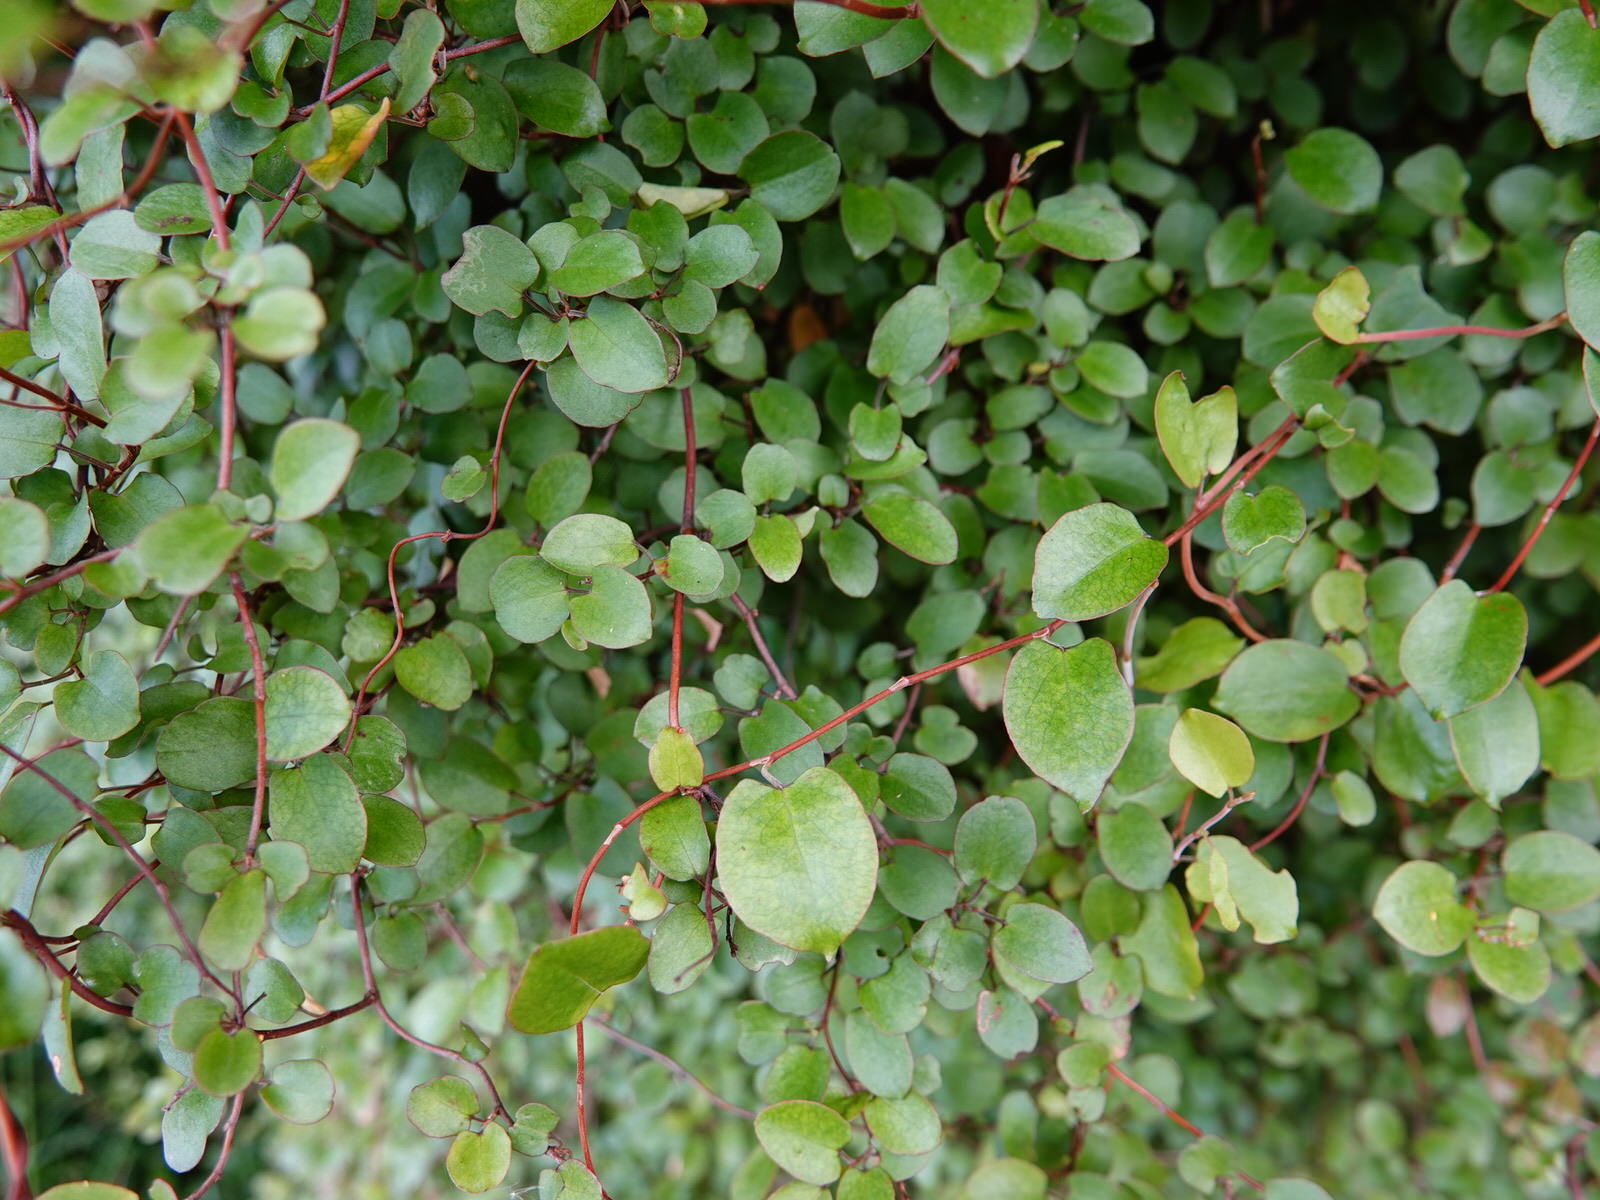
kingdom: Plantae
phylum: Tracheophyta
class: Magnoliopsida
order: Caryophyllales
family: Polygonaceae
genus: Muehlenbeckia
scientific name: Muehlenbeckia
